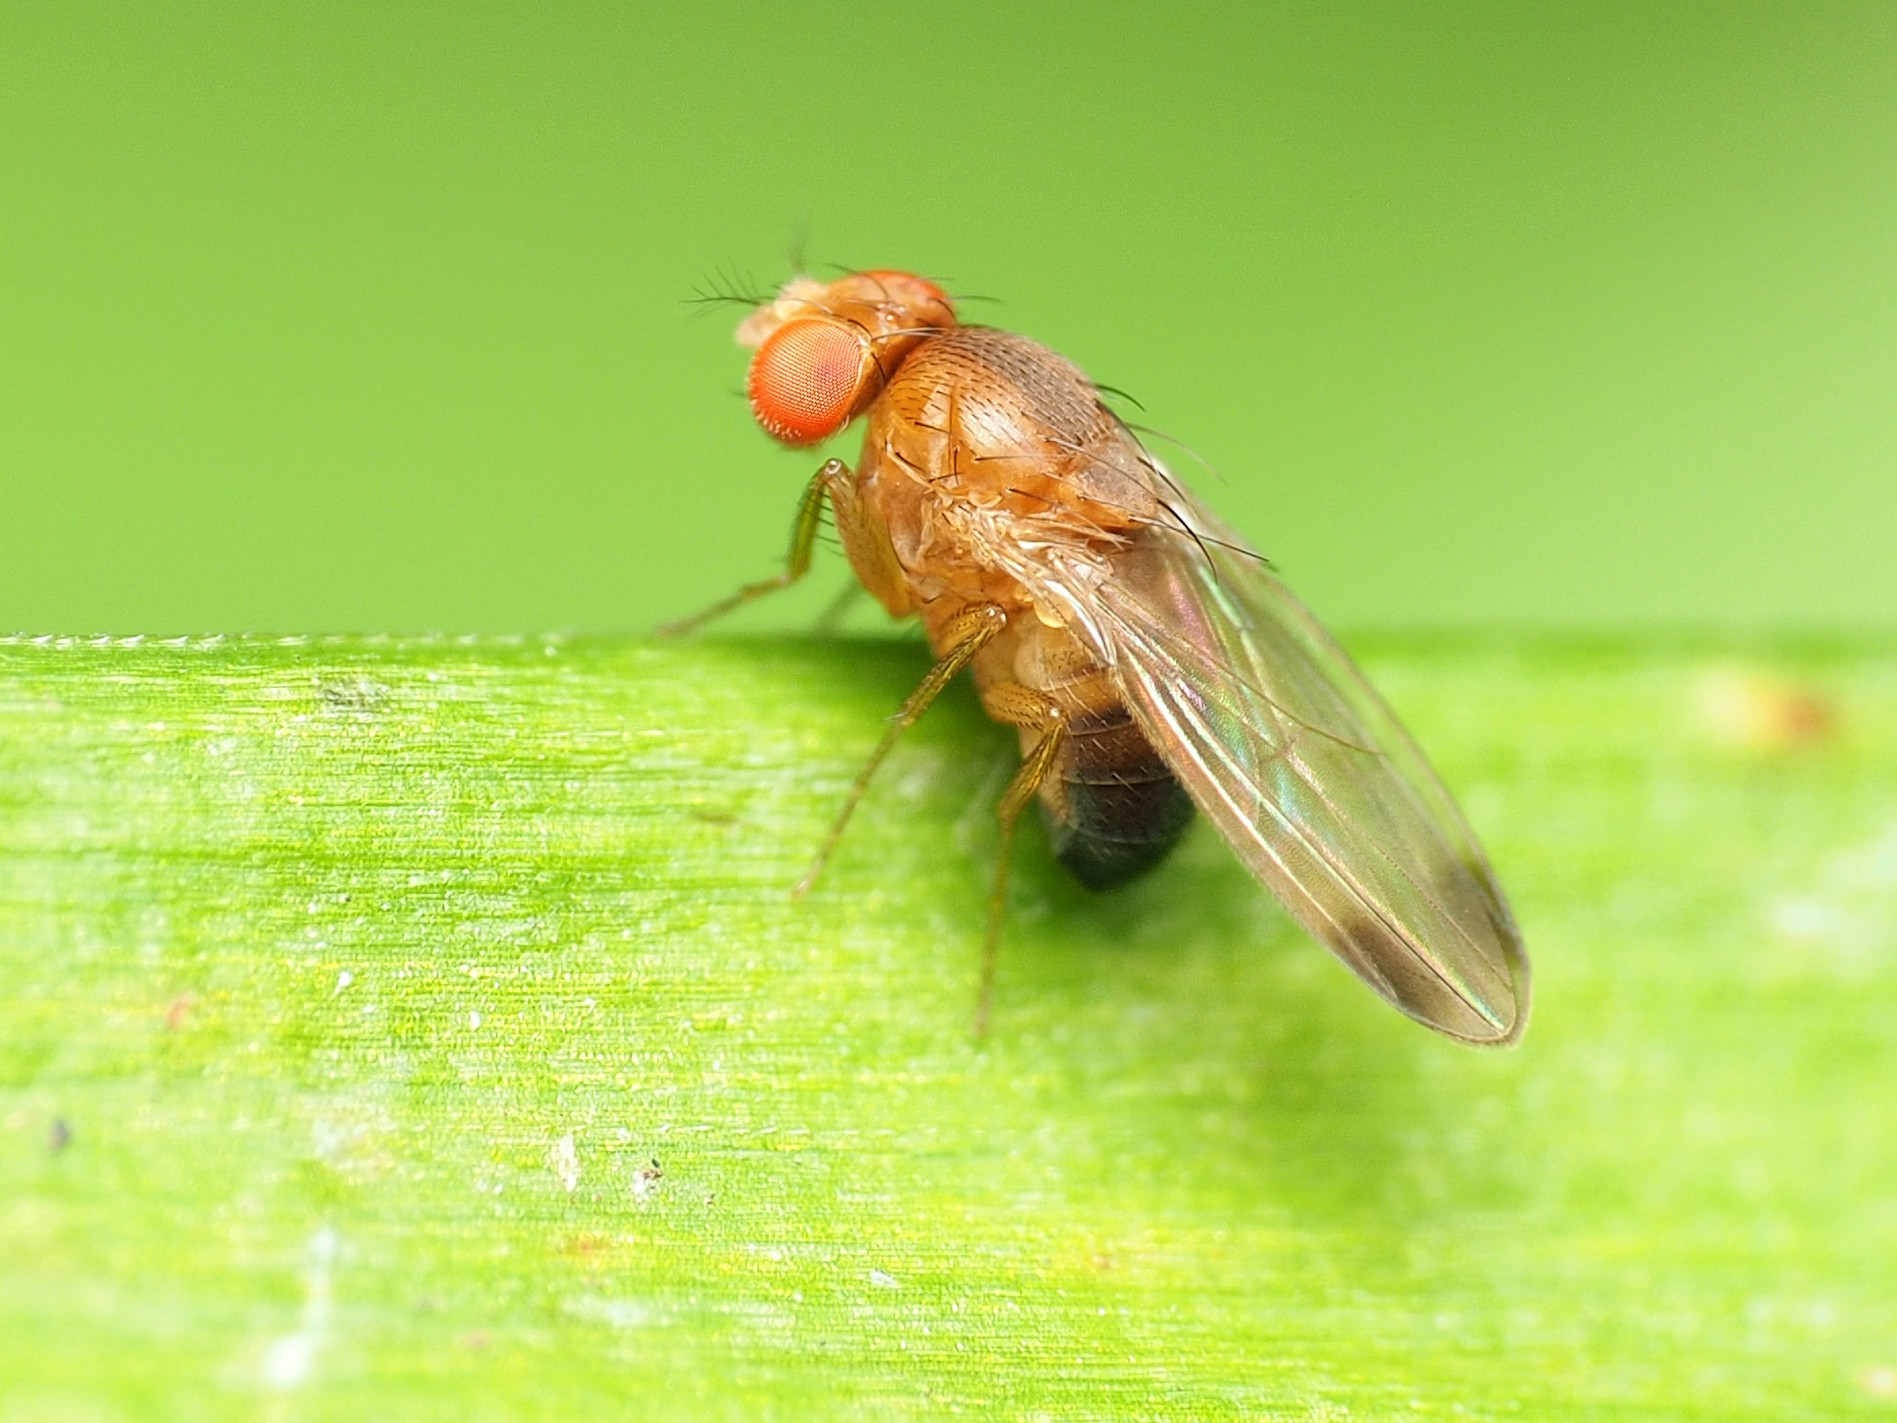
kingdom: Animalia
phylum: Arthropoda
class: Insecta
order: Diptera
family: Drosophilidae
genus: Drosophila
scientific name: Drosophila suzukii
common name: Spotted-wing drosophila
